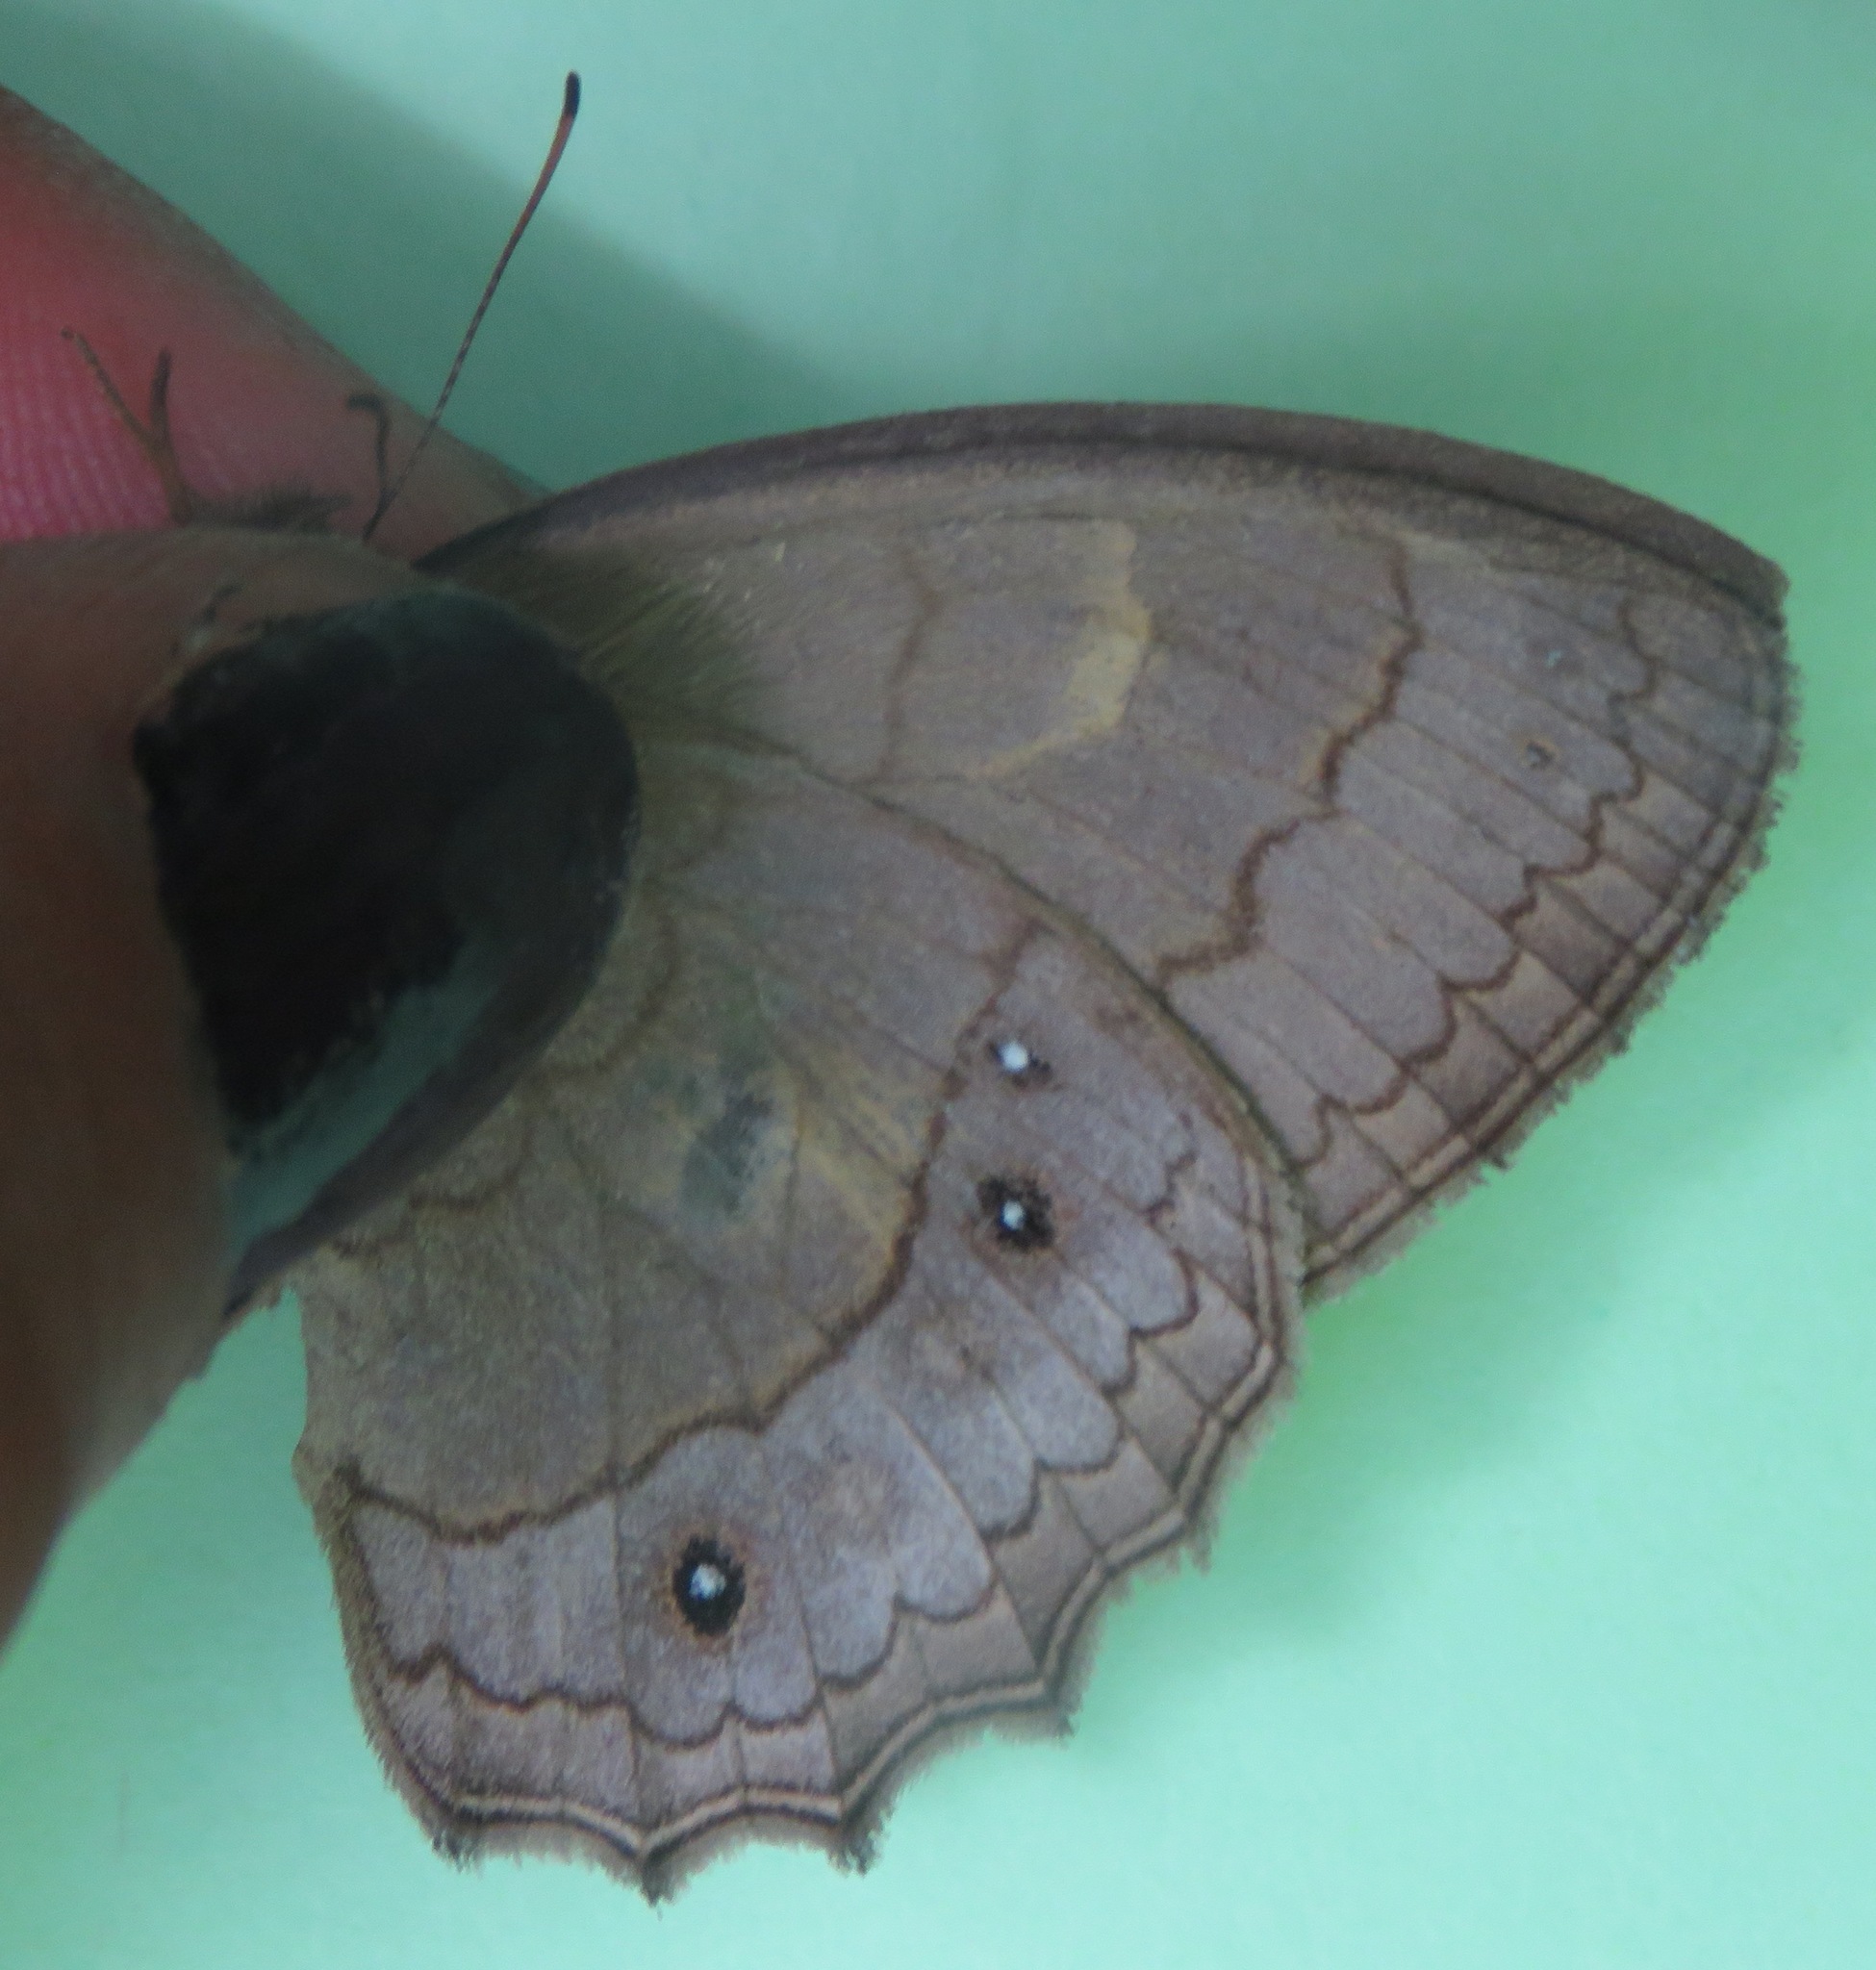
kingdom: Animalia
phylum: Arthropoda
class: Insecta
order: Lepidoptera
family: Nymphalidae
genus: Taygetina
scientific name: Taygetina kerea
